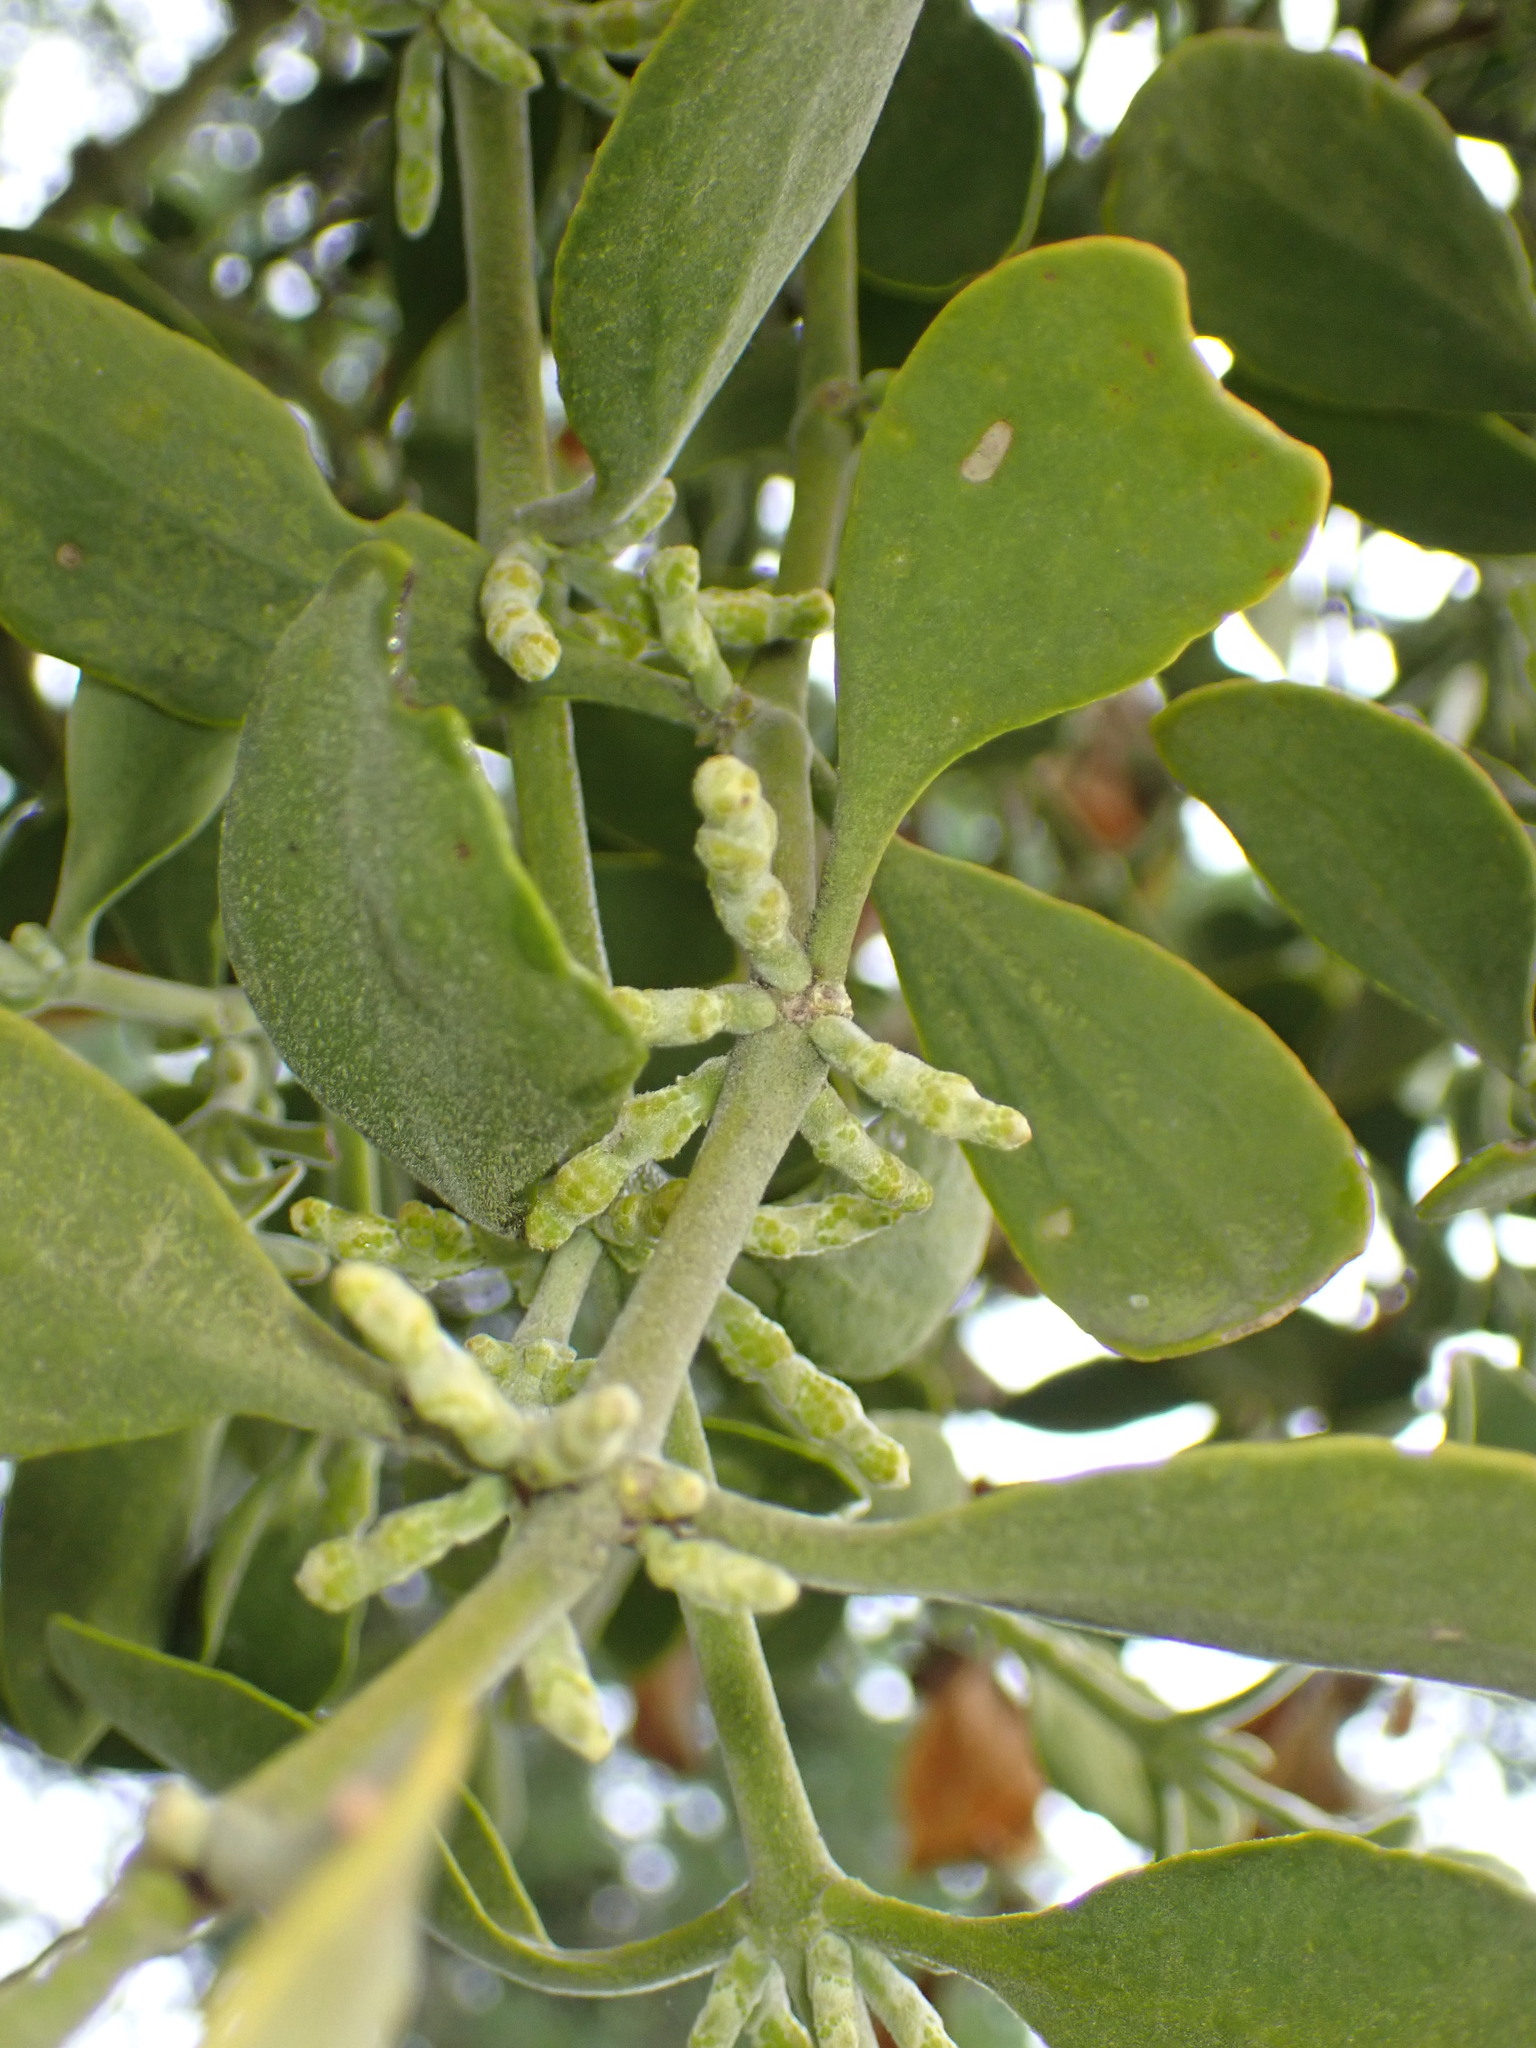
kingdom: Plantae
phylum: Tracheophyta
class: Magnoliopsida
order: Santalales
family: Viscaceae
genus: Phoradendron
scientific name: Phoradendron leucarpum
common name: Pacific mistletoe
